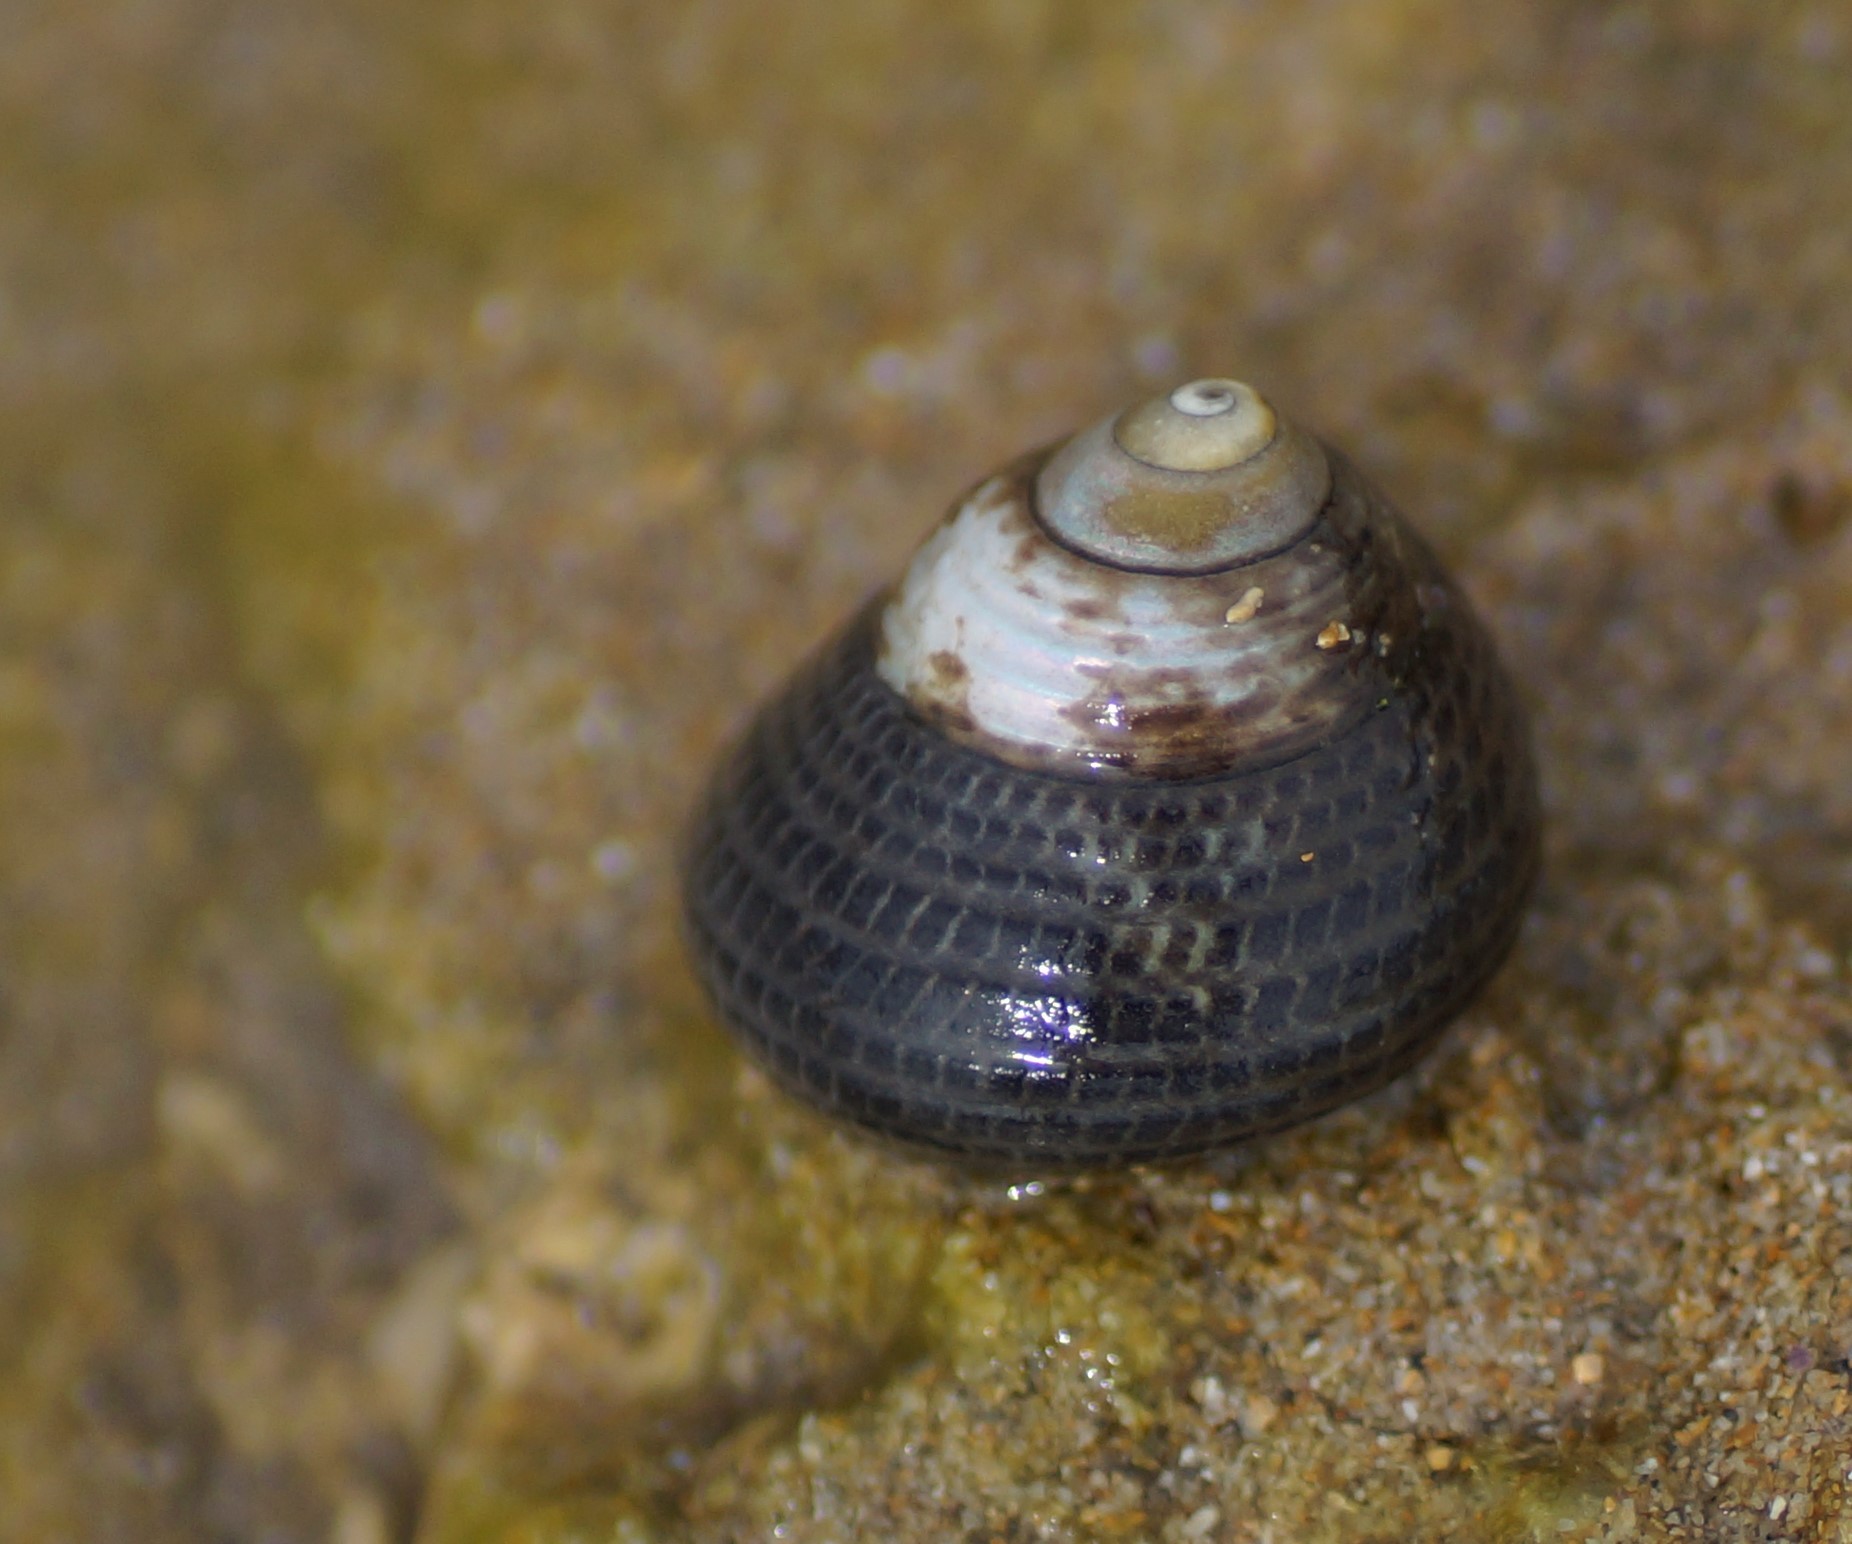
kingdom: Animalia
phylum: Mollusca
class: Gastropoda
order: Trochida
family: Trochidae
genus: Chlorodiloma
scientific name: Chlorodiloma adelaidae
